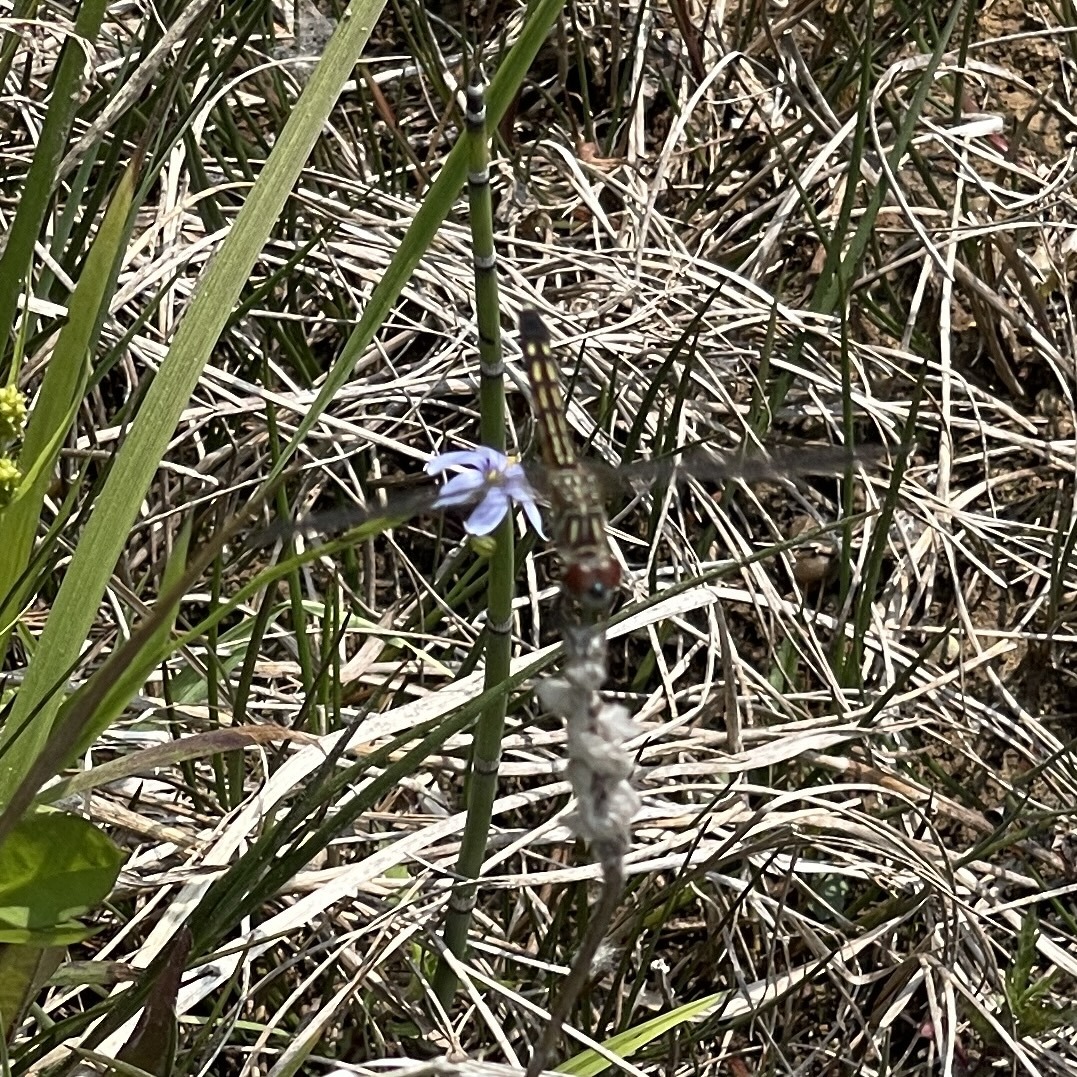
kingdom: Animalia
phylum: Arthropoda
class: Insecta
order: Odonata
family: Libellulidae
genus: Pachydiplax
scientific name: Pachydiplax longipennis
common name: Blue dasher
